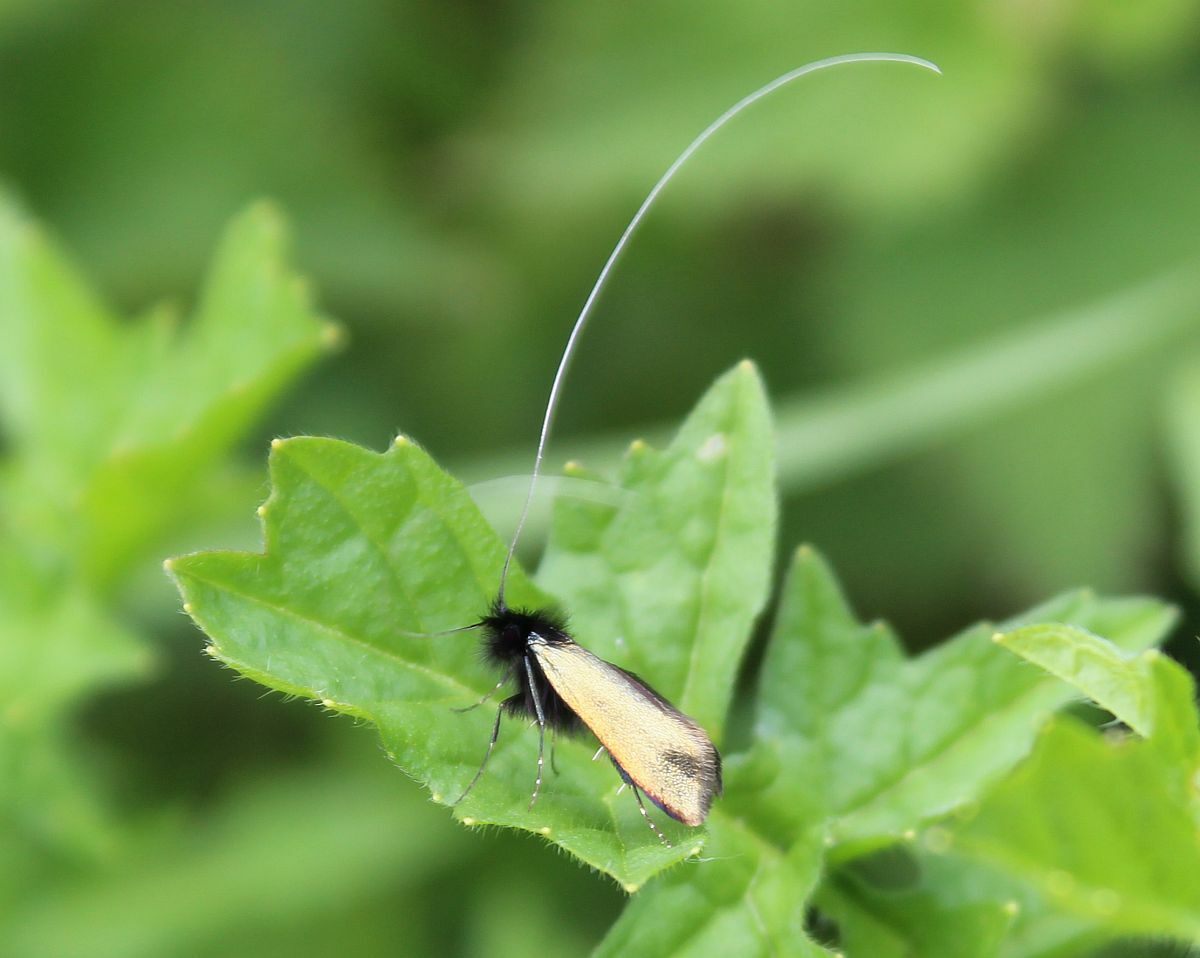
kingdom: Animalia
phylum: Arthropoda
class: Insecta
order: Lepidoptera
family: Adelidae
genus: Adela
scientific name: Adela viridella
